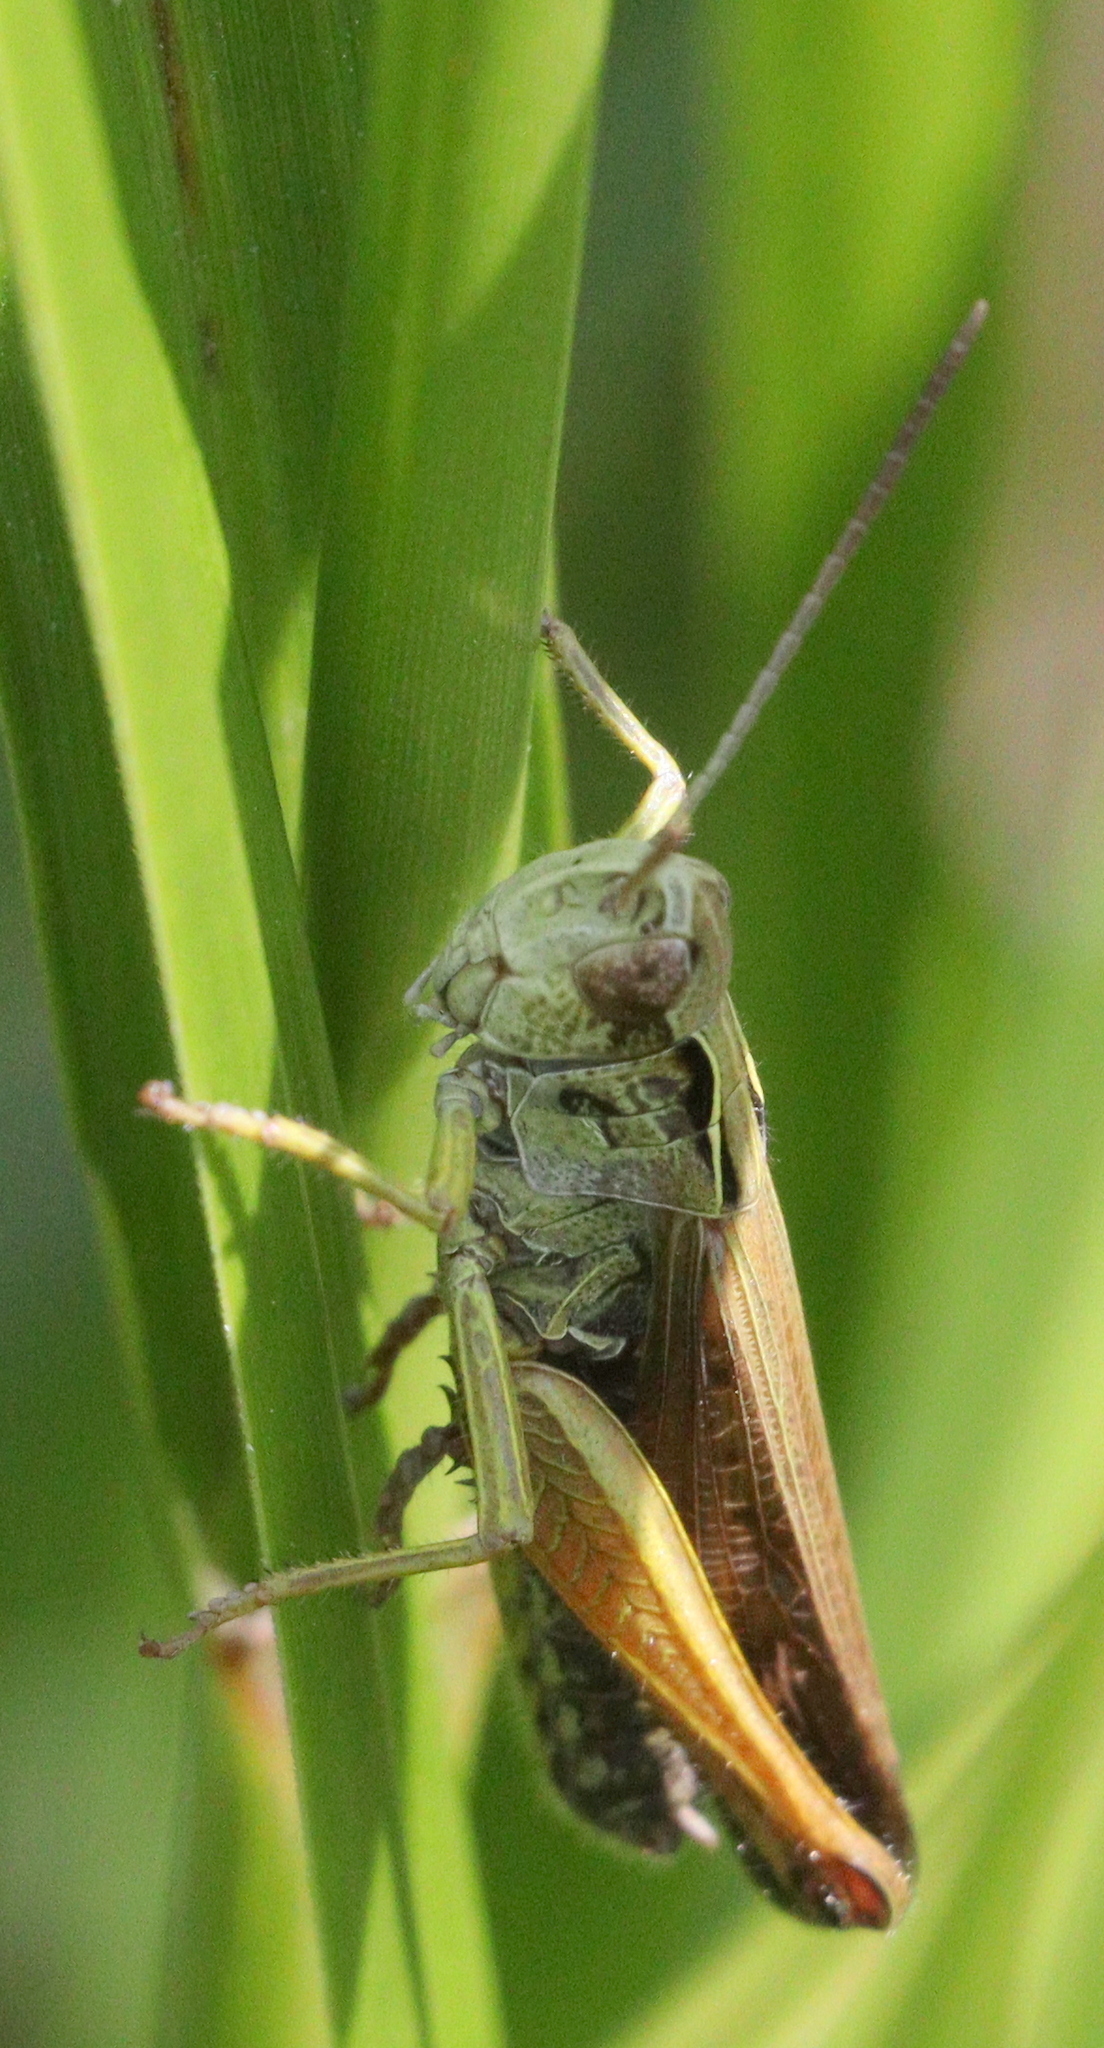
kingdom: Animalia
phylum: Arthropoda
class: Insecta
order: Orthoptera
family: Acrididae
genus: Omocestus
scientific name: Omocestus viridulus
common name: Common green grasshopper
